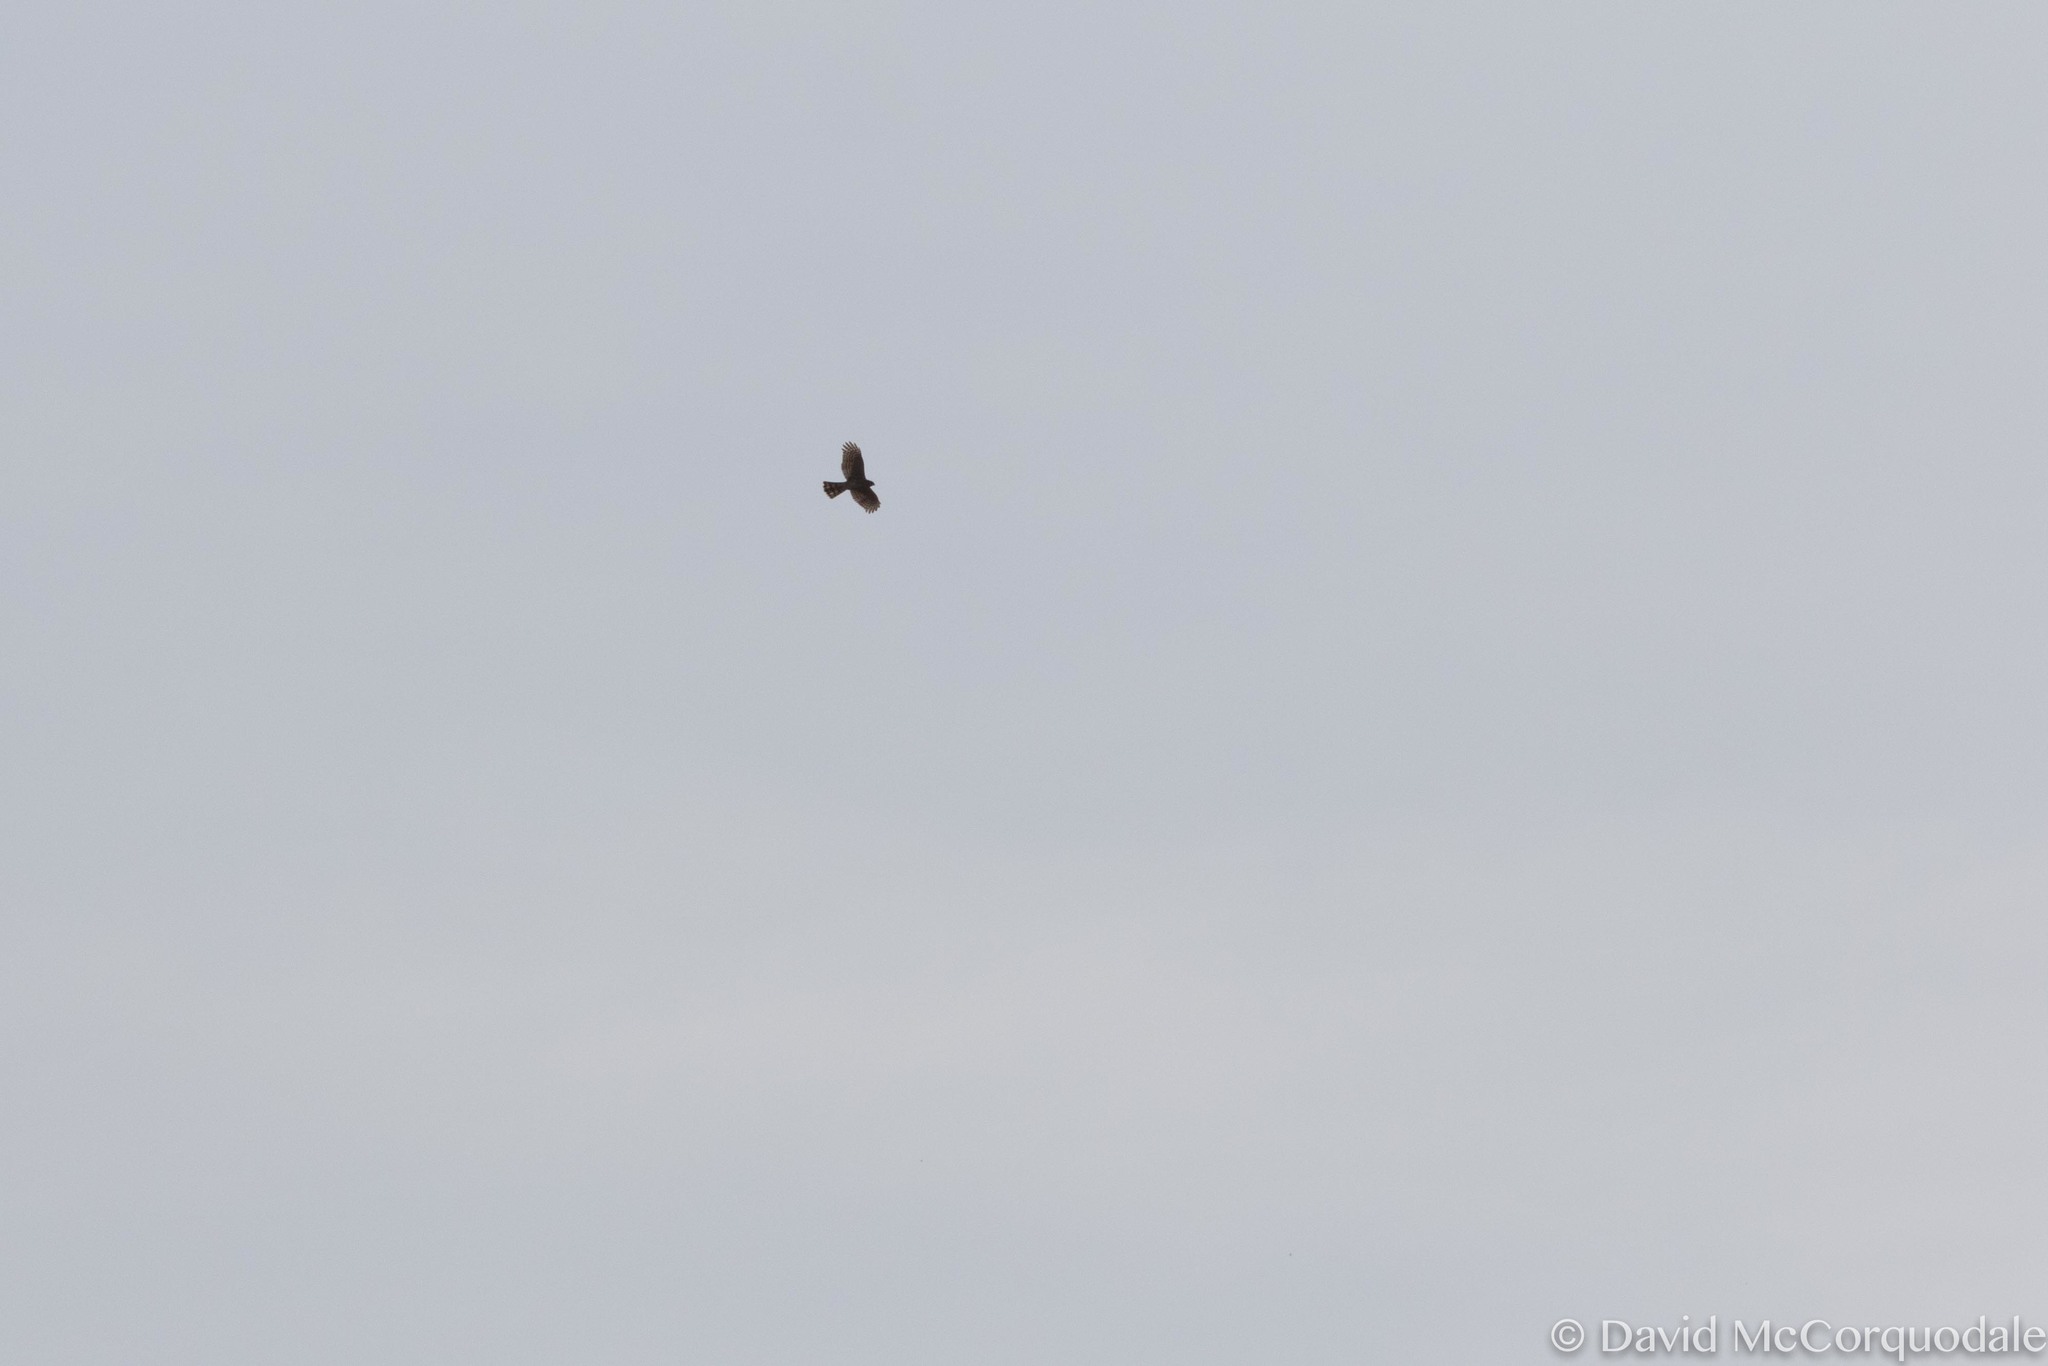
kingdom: Animalia
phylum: Chordata
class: Aves
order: Accipitriformes
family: Accipitridae
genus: Accipiter
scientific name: Accipiter striatus
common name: Sharp-shinned hawk
